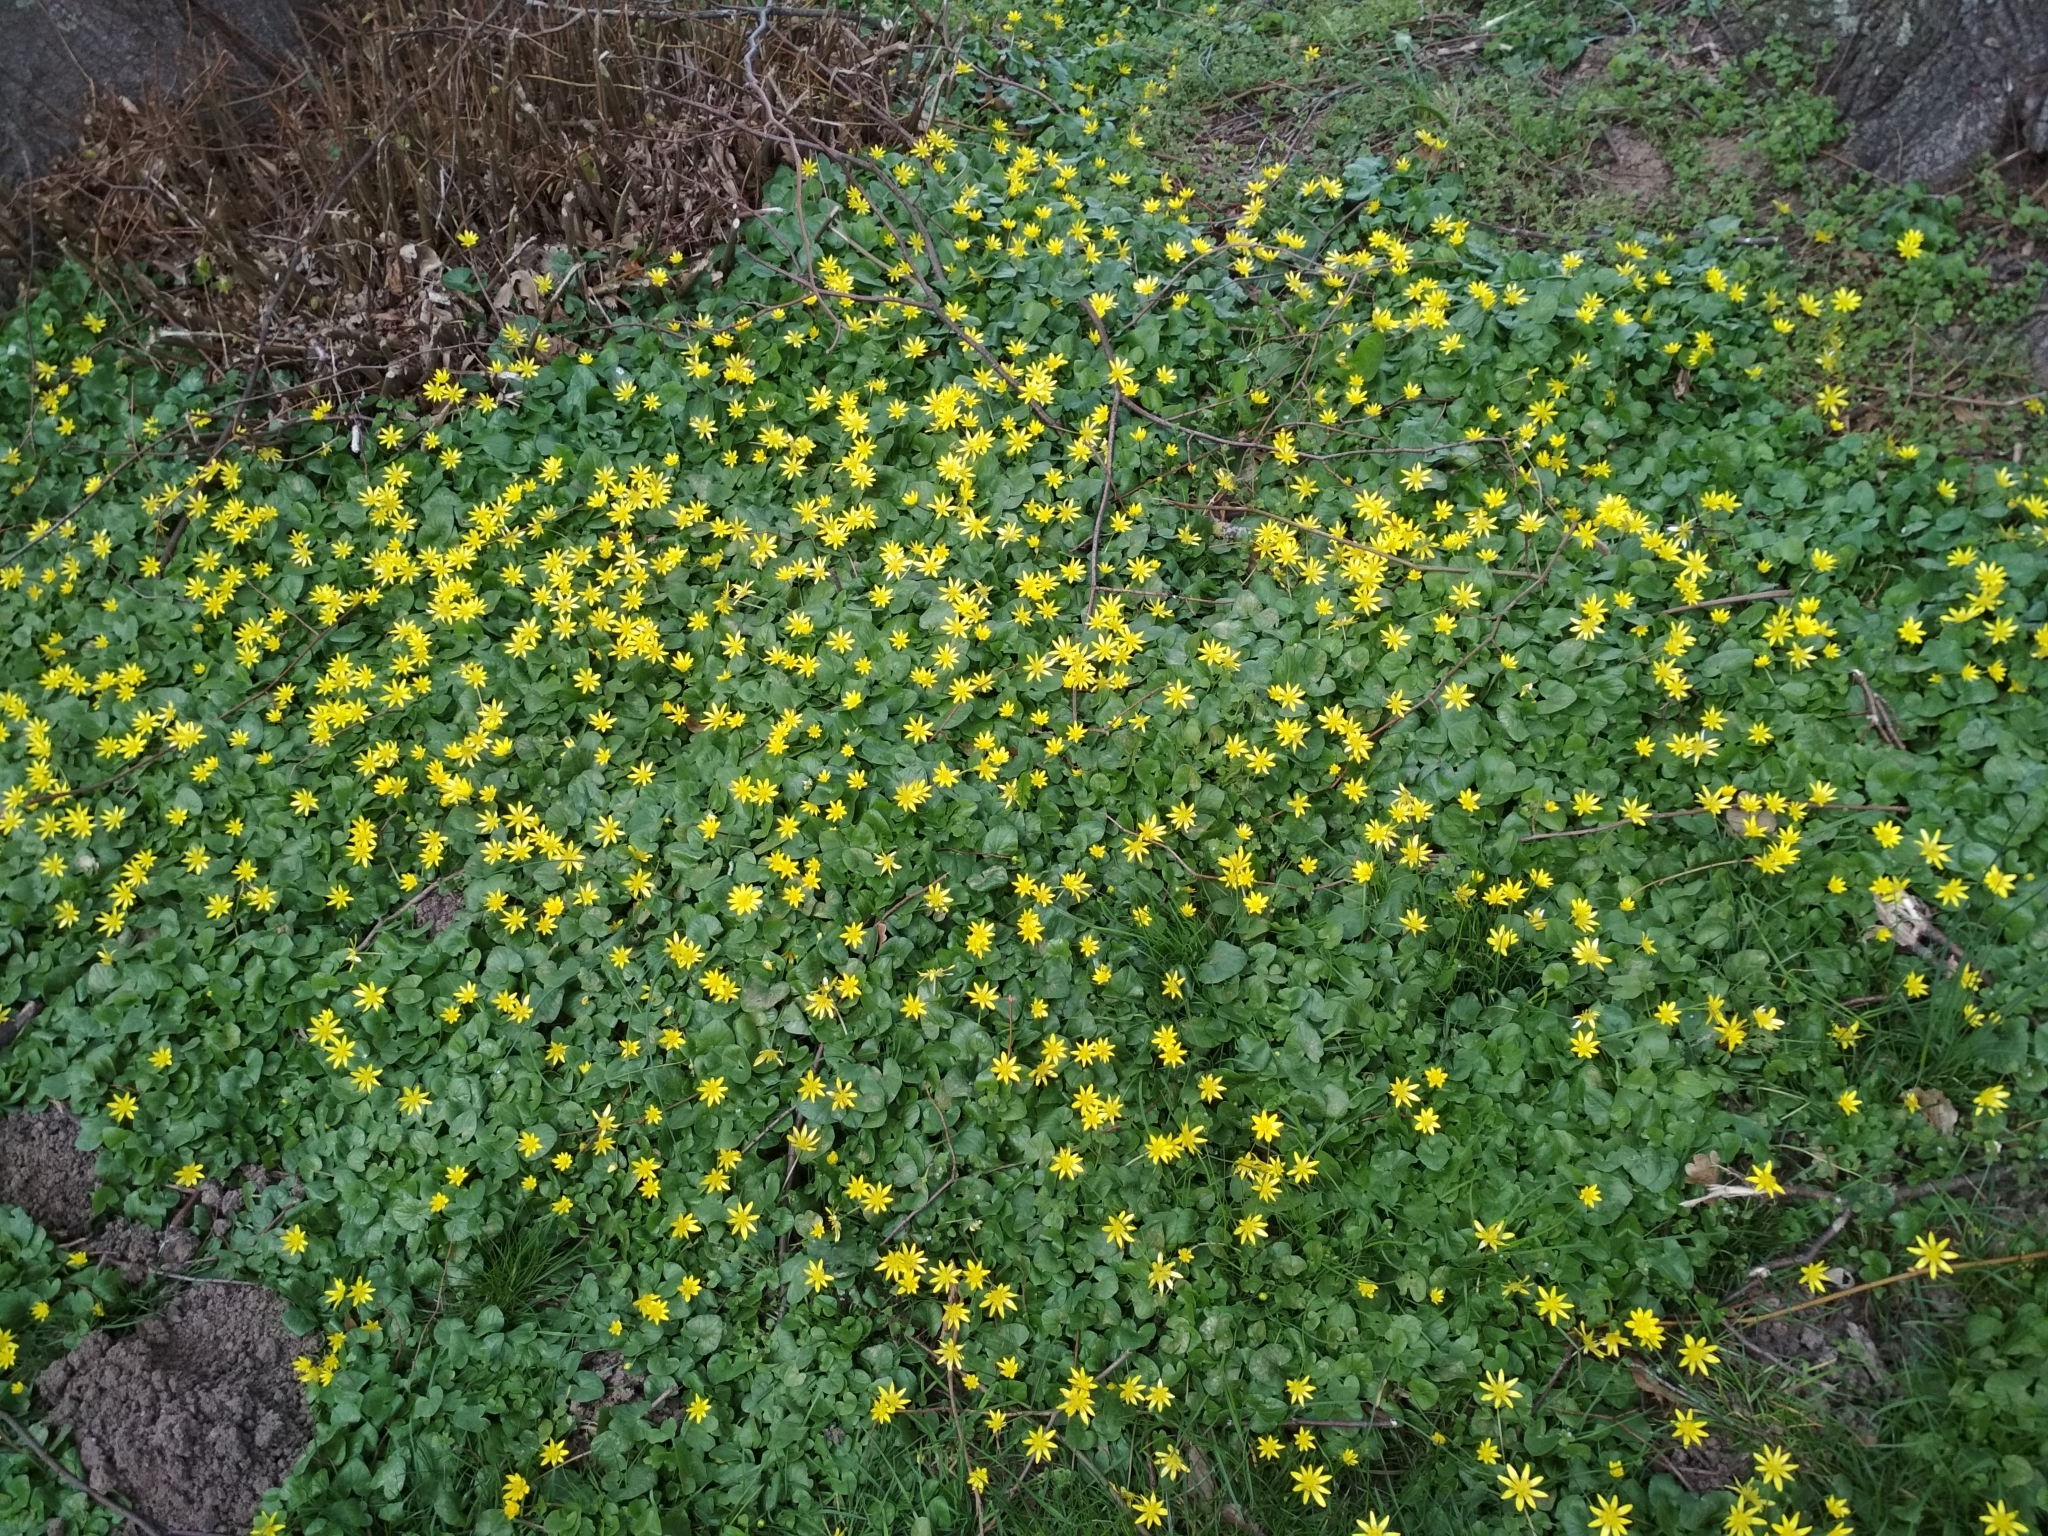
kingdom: Plantae
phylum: Tracheophyta
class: Magnoliopsida
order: Ranunculales
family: Ranunculaceae
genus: Ficaria
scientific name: Ficaria verna
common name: Lesser celandine
